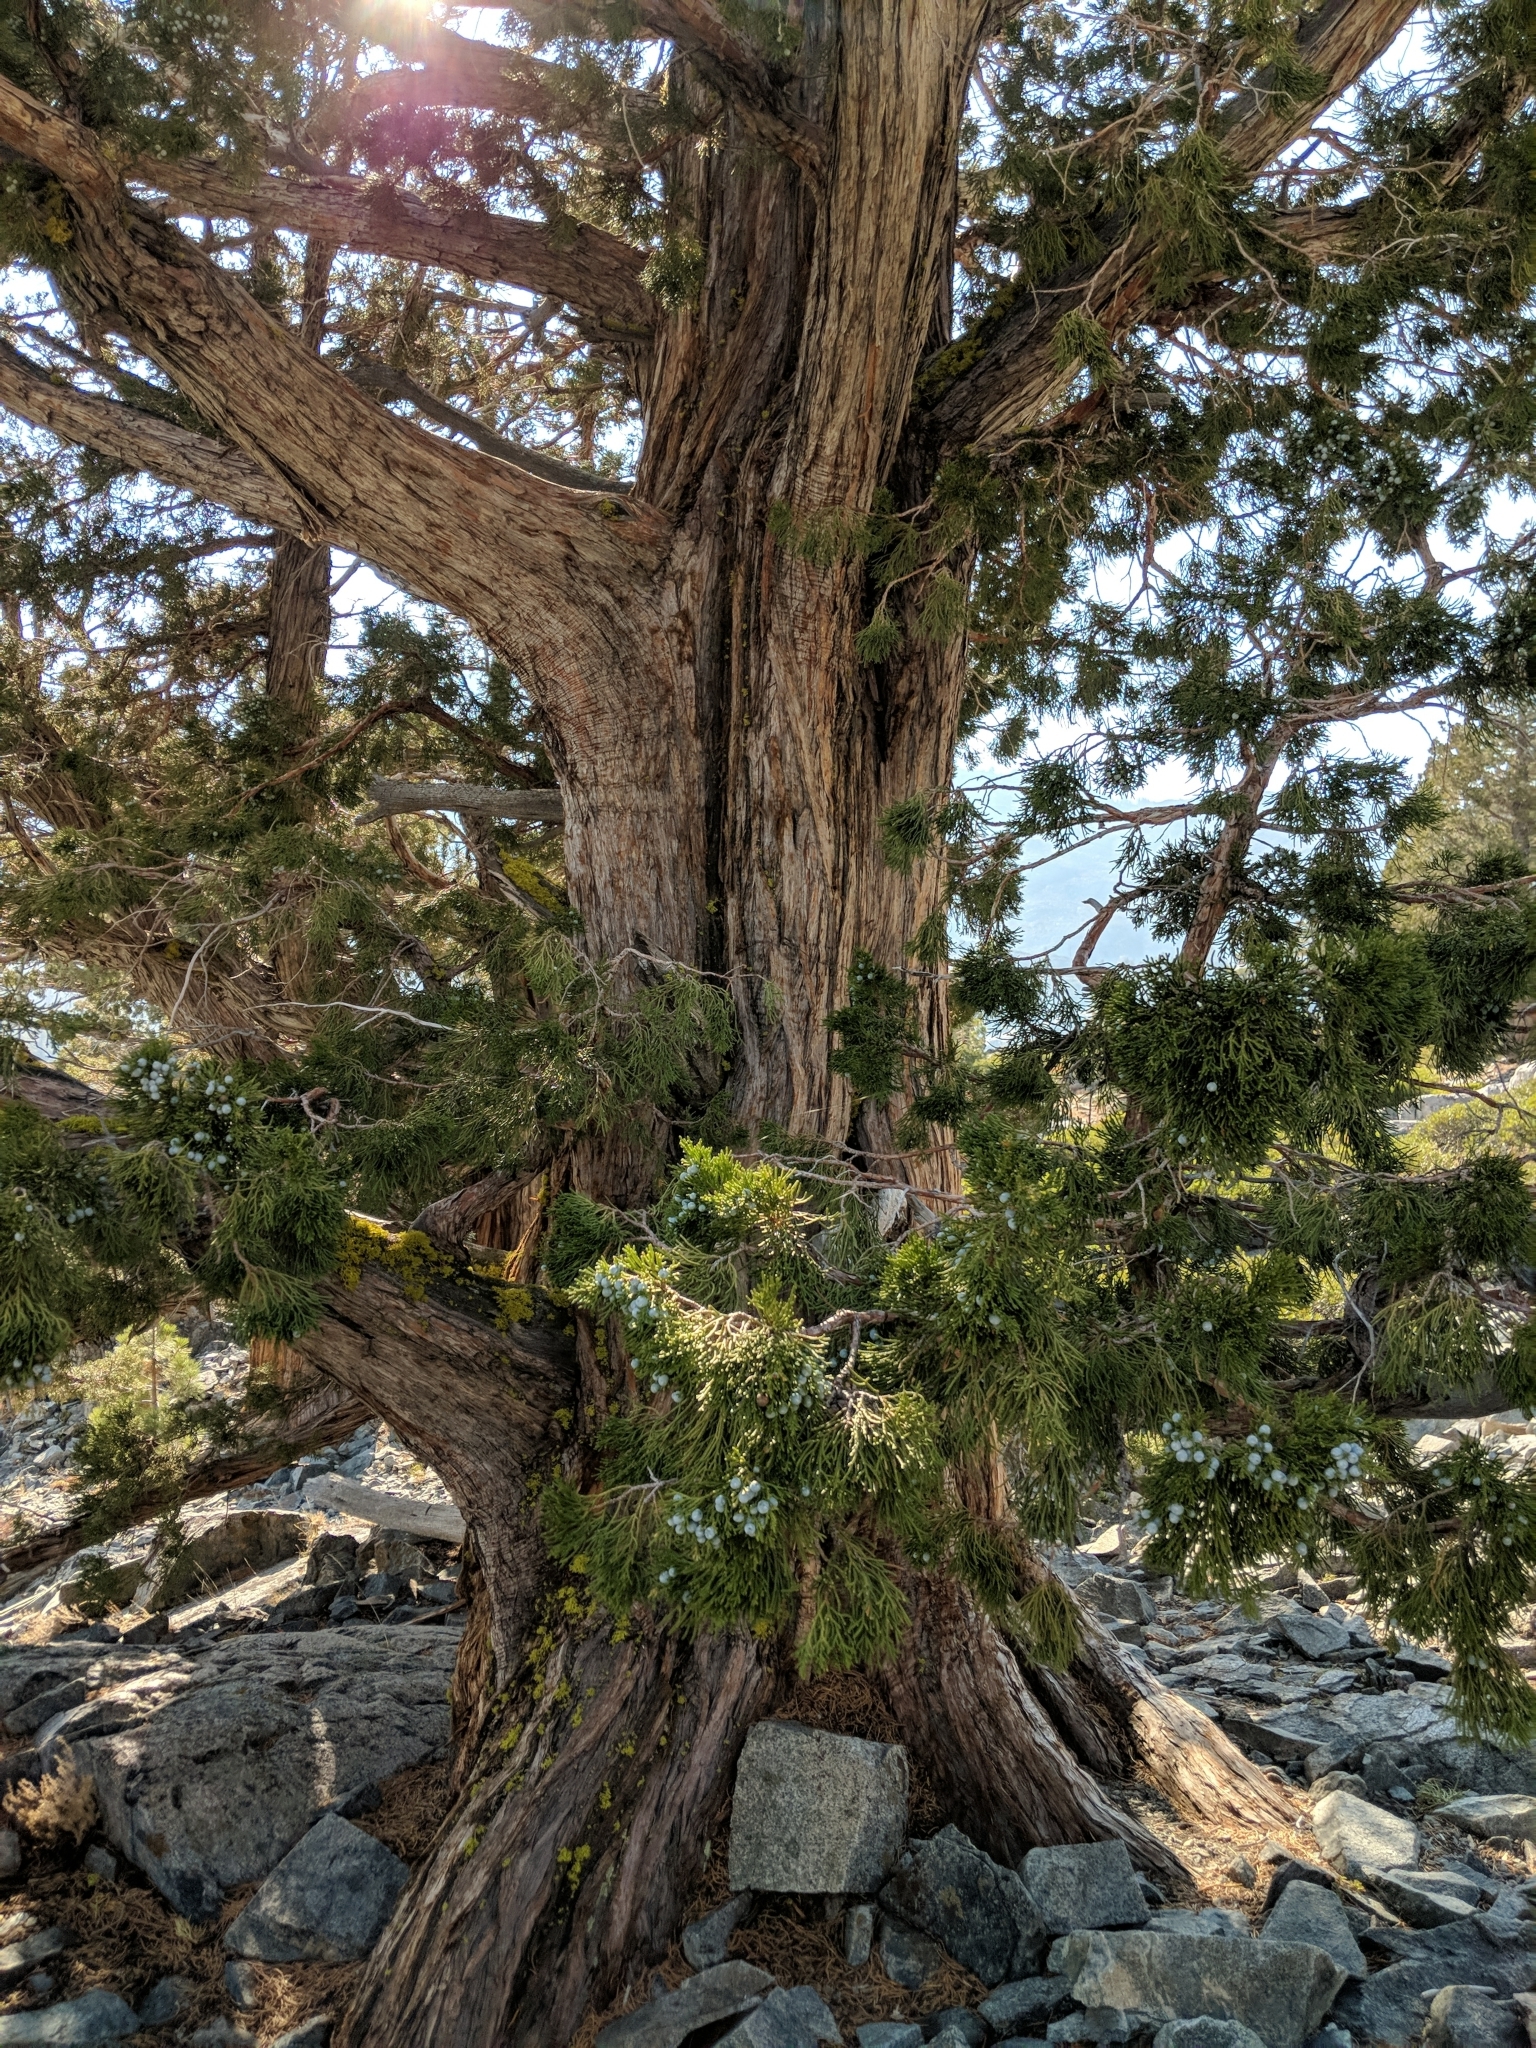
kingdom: Plantae
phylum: Tracheophyta
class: Pinopsida
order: Pinales
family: Cupressaceae
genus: Juniperus
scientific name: Juniperus occidentalis
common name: Western juniper
